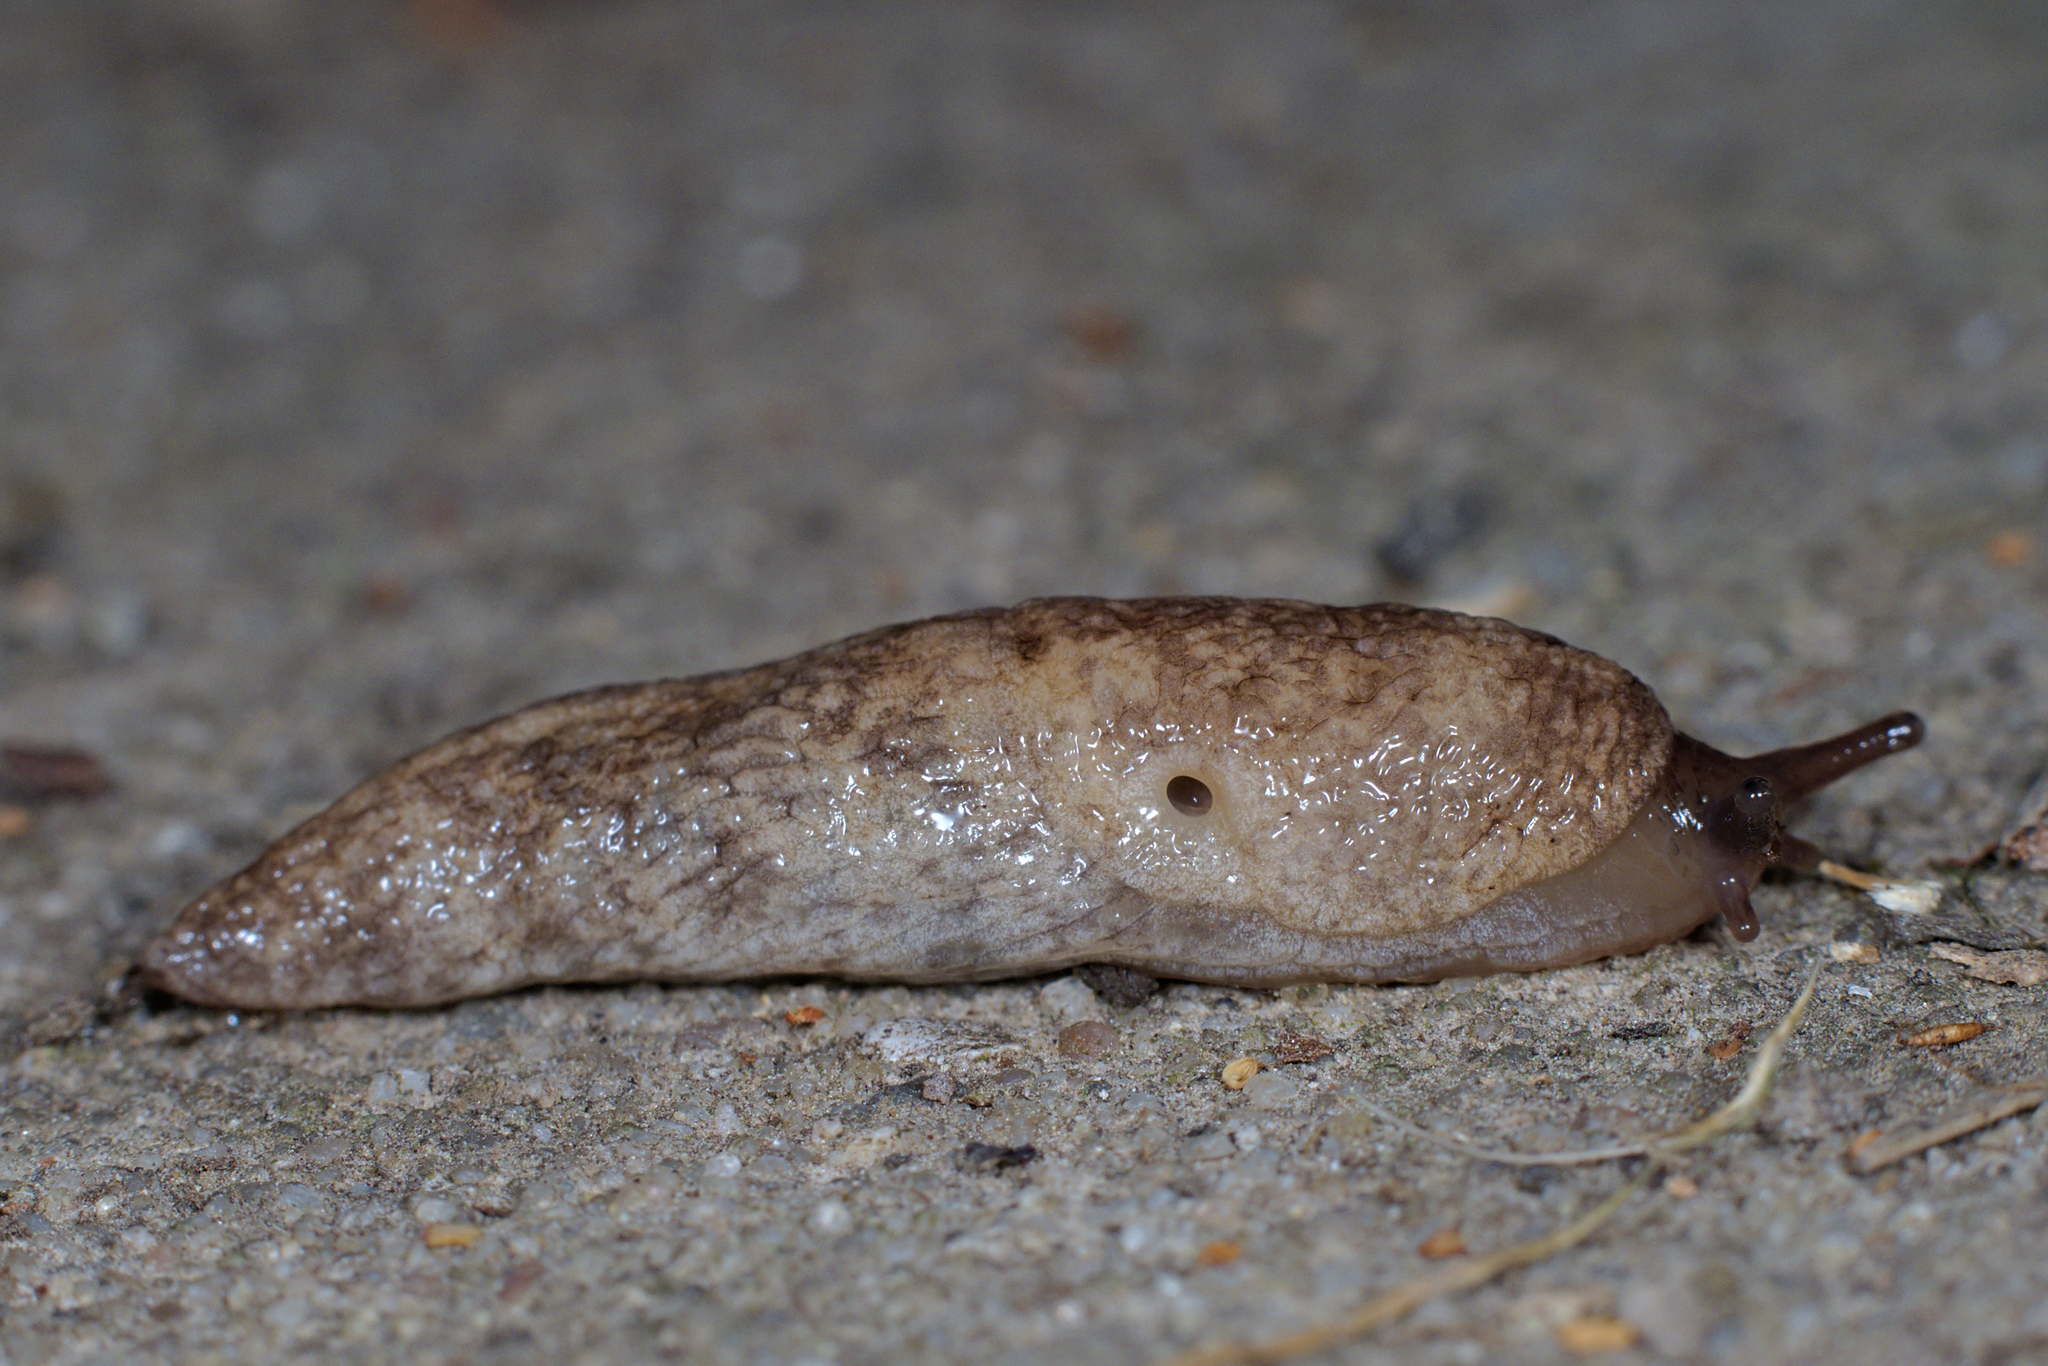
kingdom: Animalia
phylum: Mollusca
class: Gastropoda
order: Stylommatophora
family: Agriolimacidae
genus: Deroceras
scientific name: Deroceras reticulatum
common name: Gray field slug
